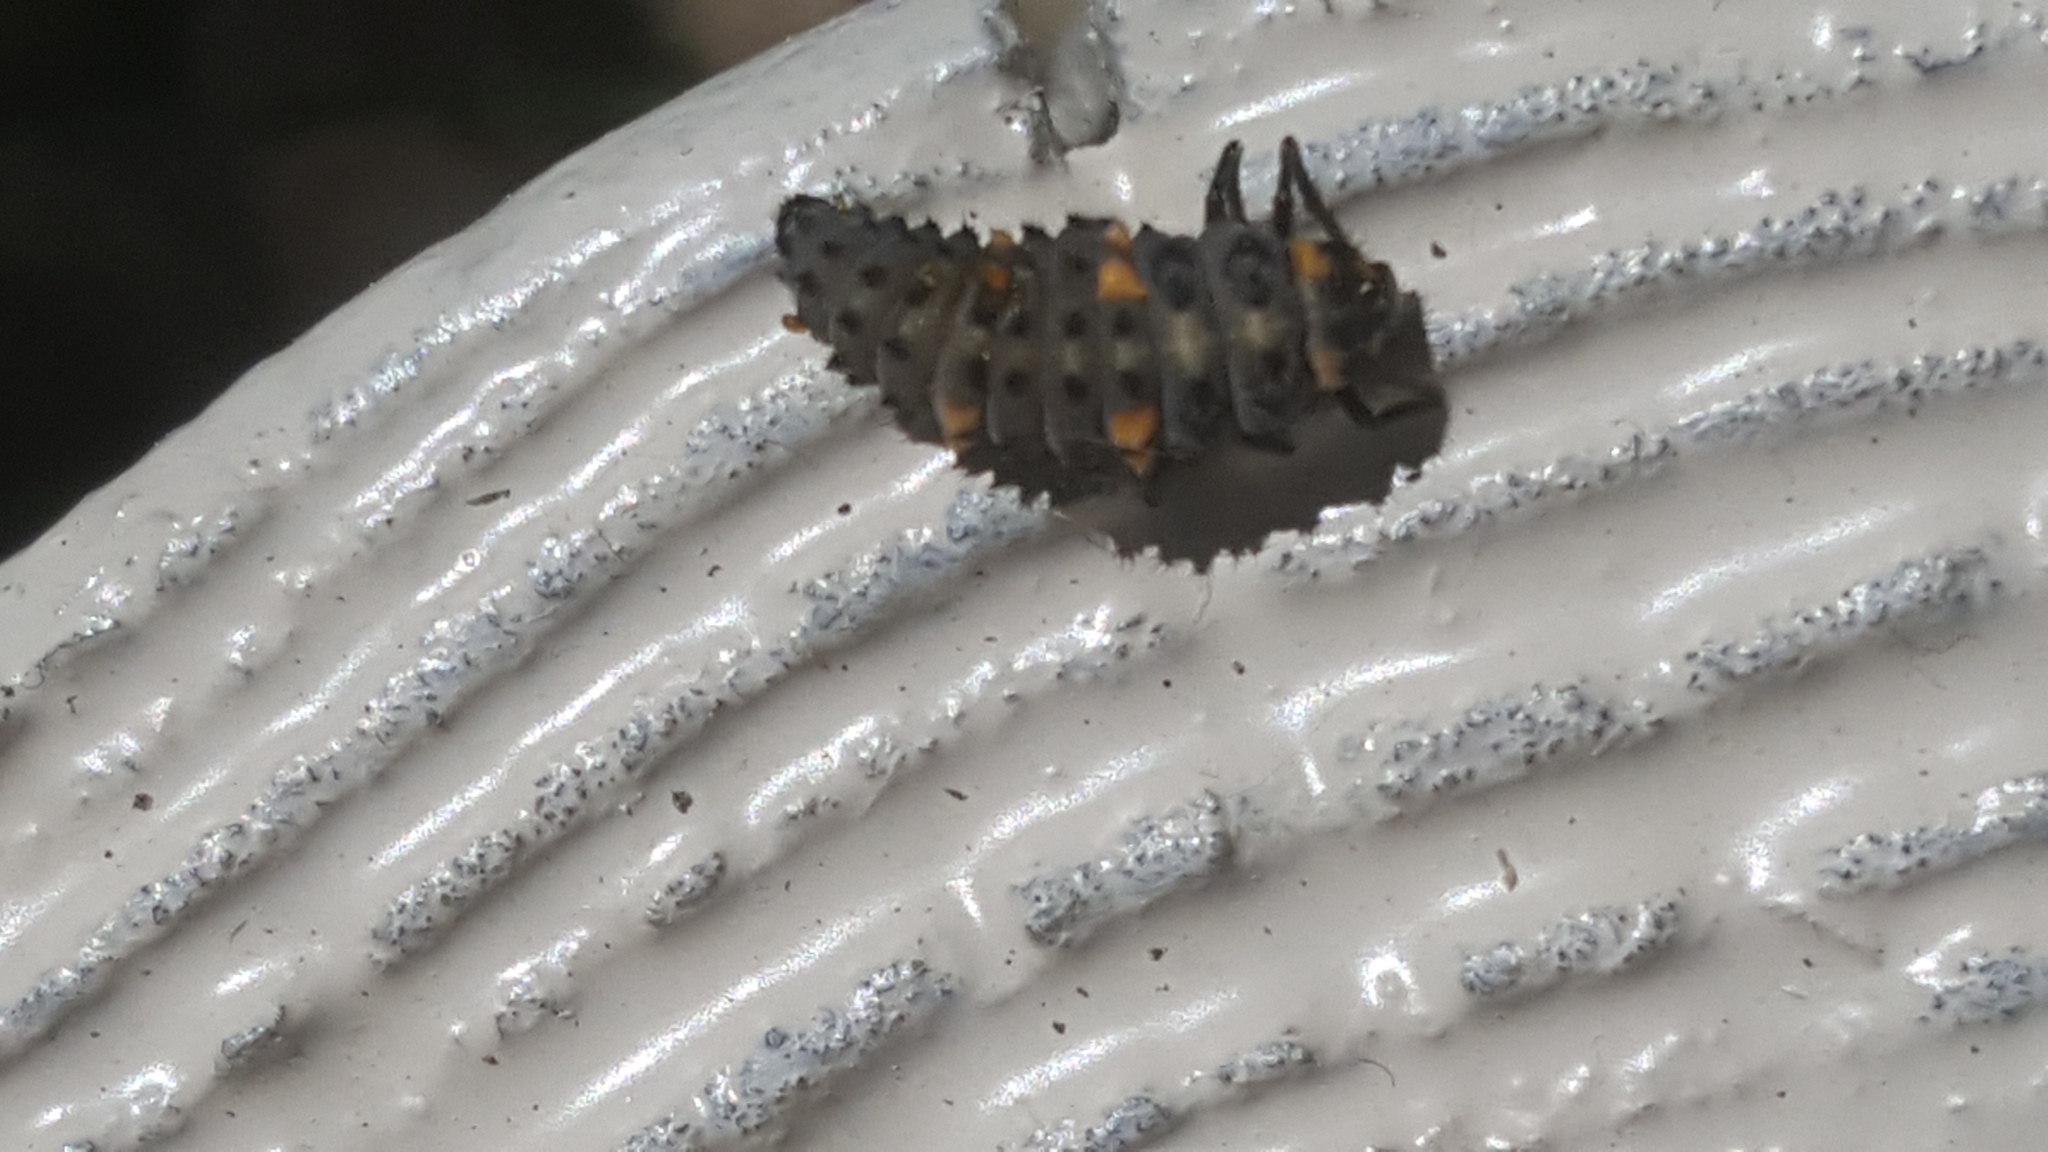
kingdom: Animalia
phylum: Arthropoda
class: Insecta
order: Coleoptera
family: Coccinellidae
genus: Coccinella
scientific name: Coccinella septempunctata
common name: Sevenspotted lady beetle
